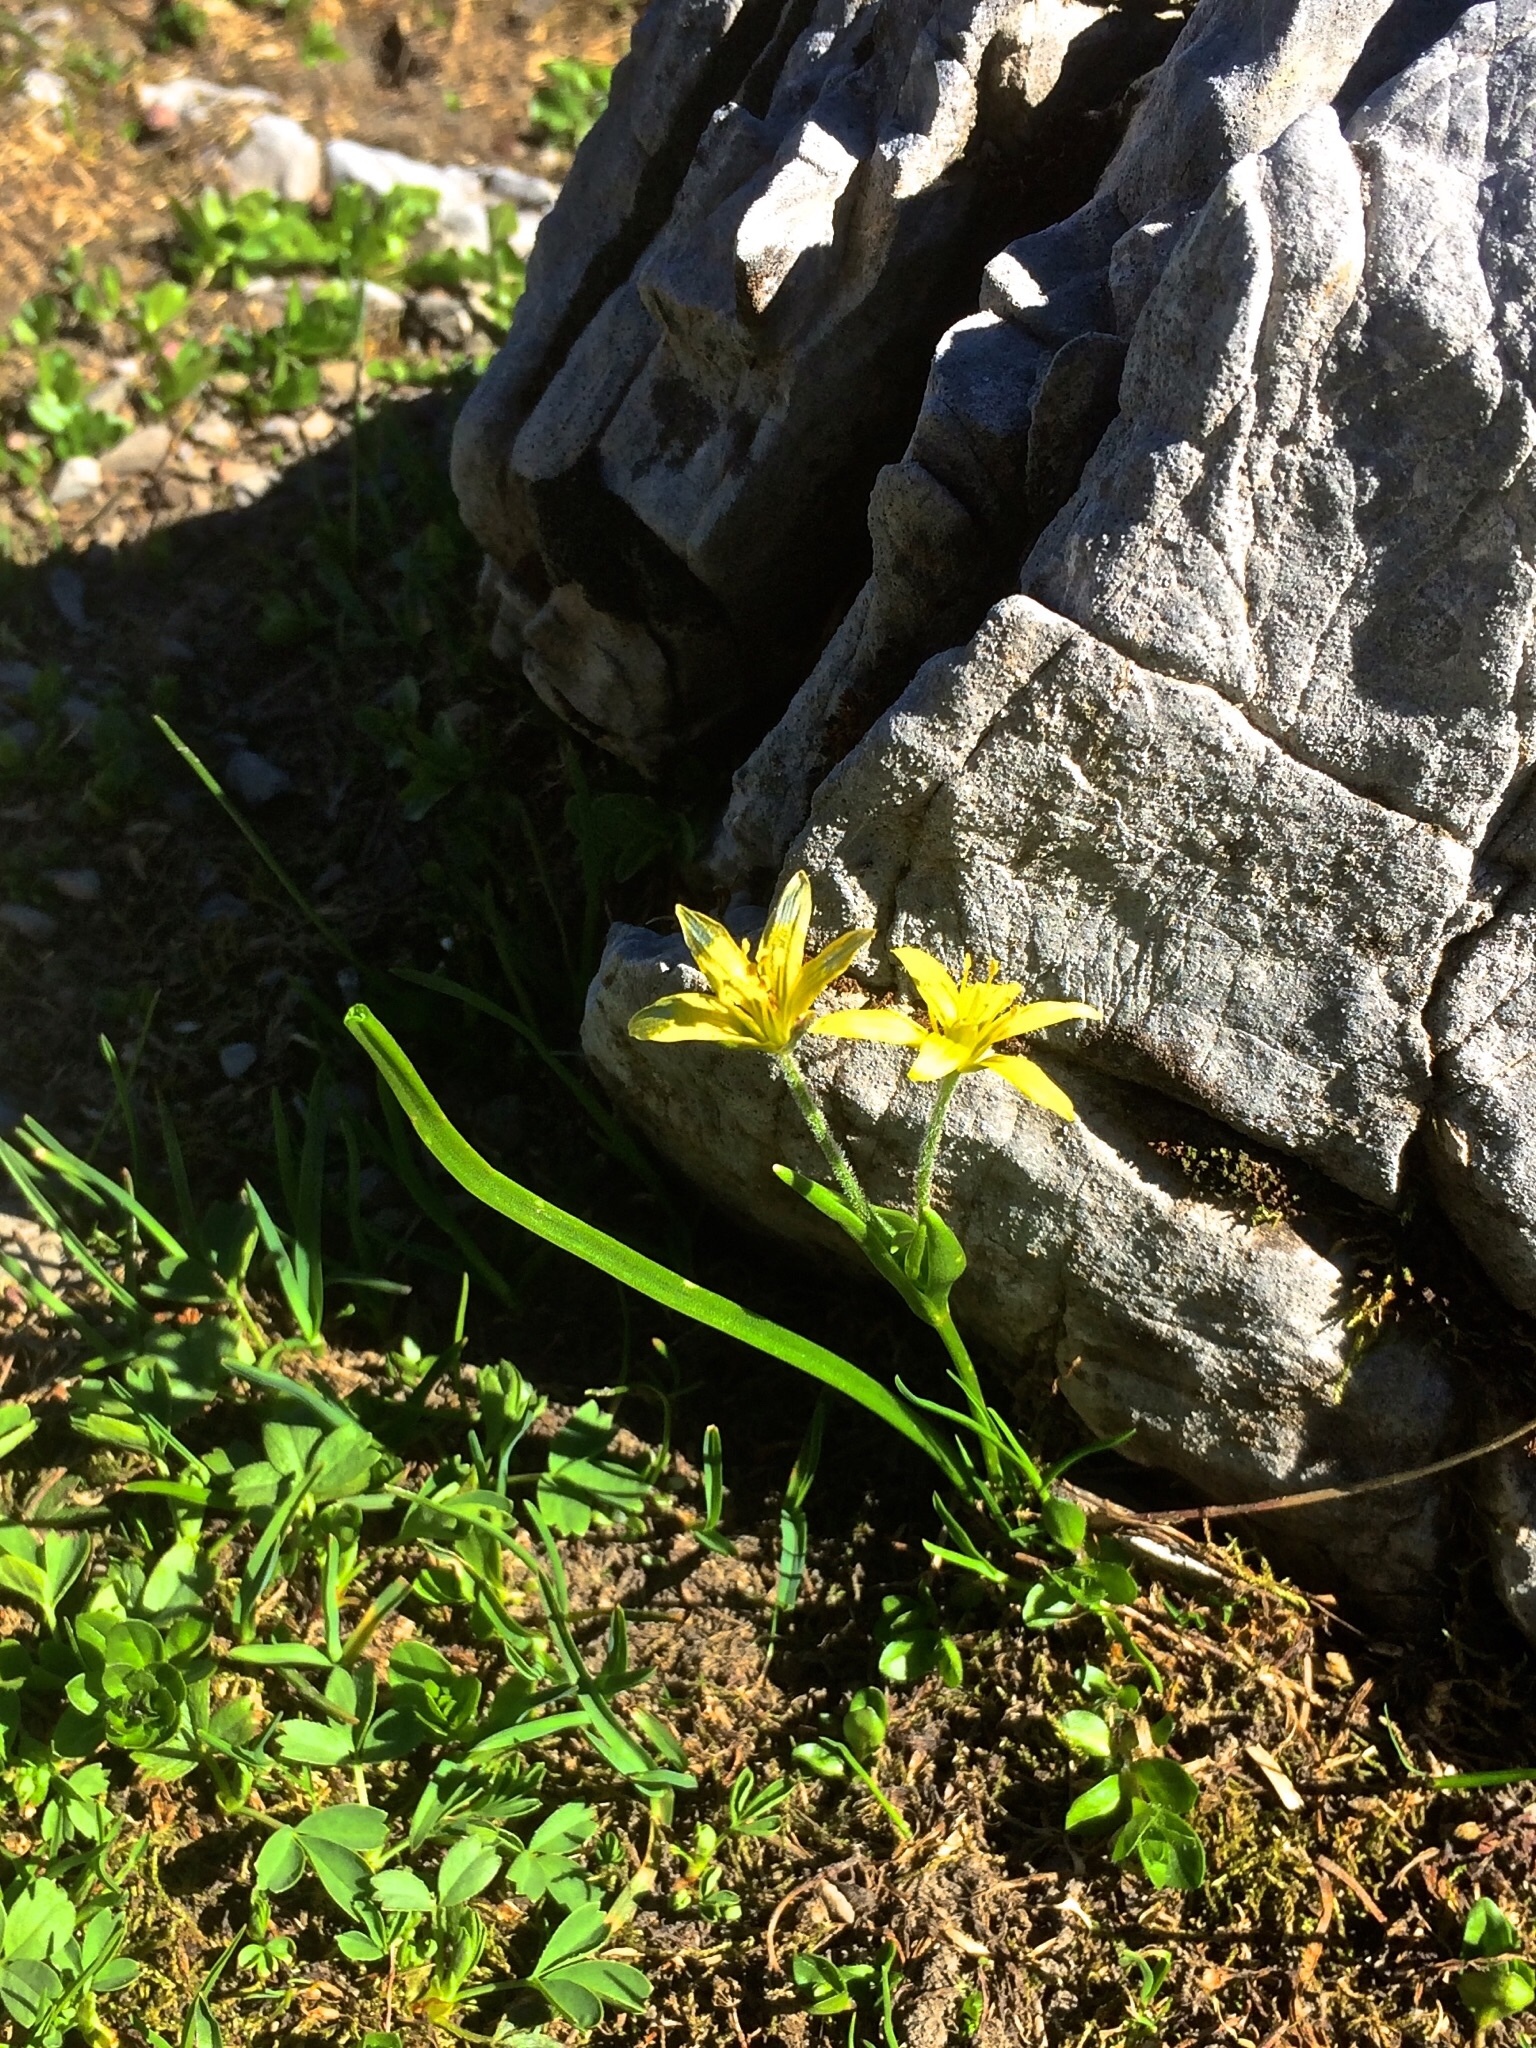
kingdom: Plantae
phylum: Tracheophyta
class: Liliopsida
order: Liliales
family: Liliaceae
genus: Gagea
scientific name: Gagea fragifera
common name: Lily
